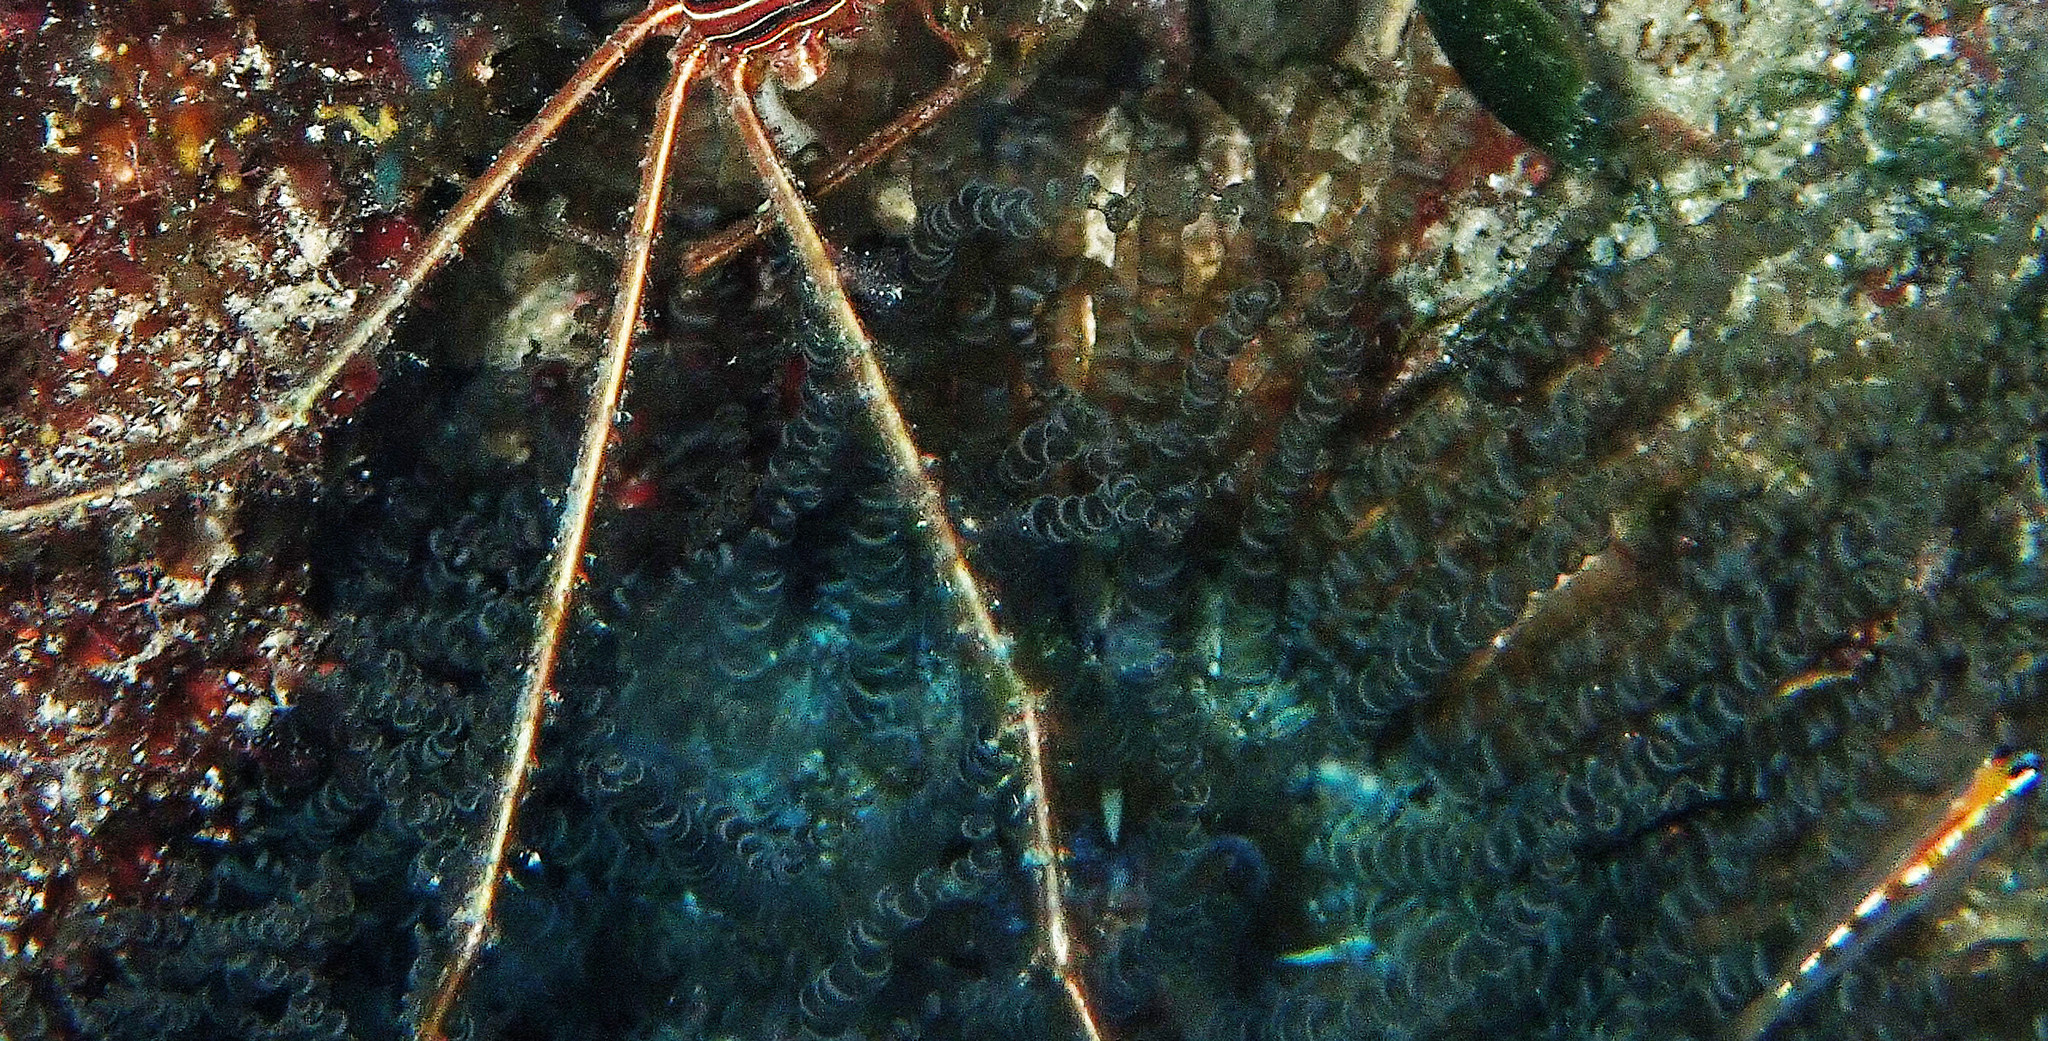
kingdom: Animalia
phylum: Cnidaria
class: Anthozoa
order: Actiniaria
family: Aiptasiidae
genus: Bartholomea
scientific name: Bartholomea annulata
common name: Corkscrew anemone
